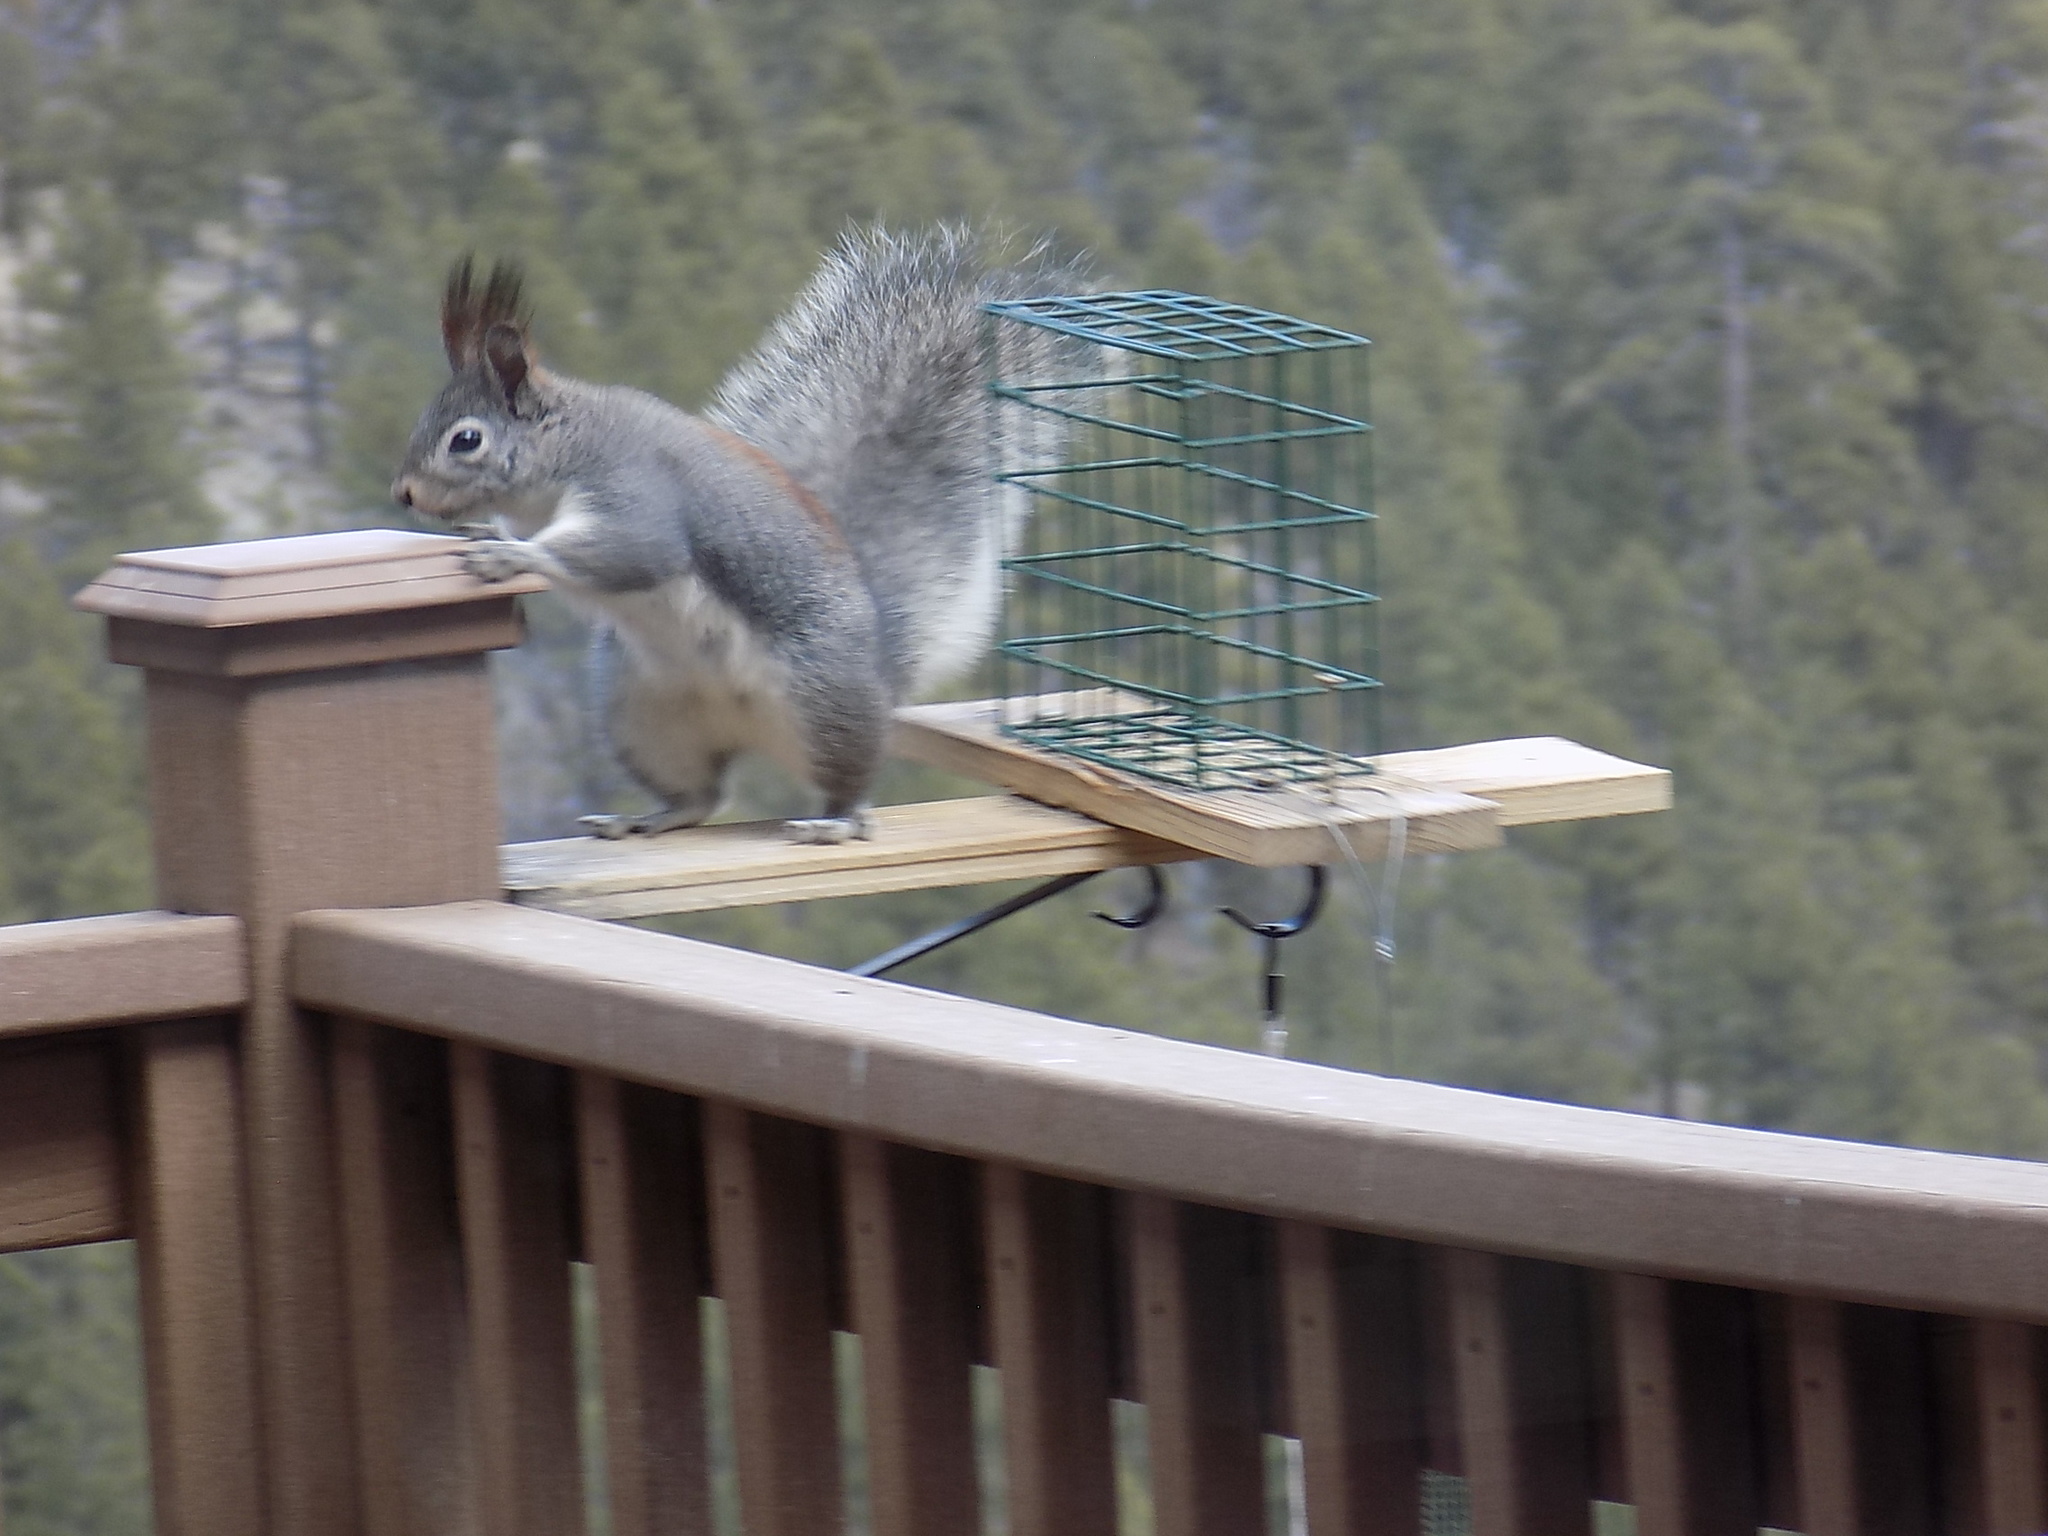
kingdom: Animalia
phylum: Chordata
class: Mammalia
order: Rodentia
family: Sciuridae
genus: Sciurus
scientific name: Sciurus aberti
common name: Abert's squirrel
